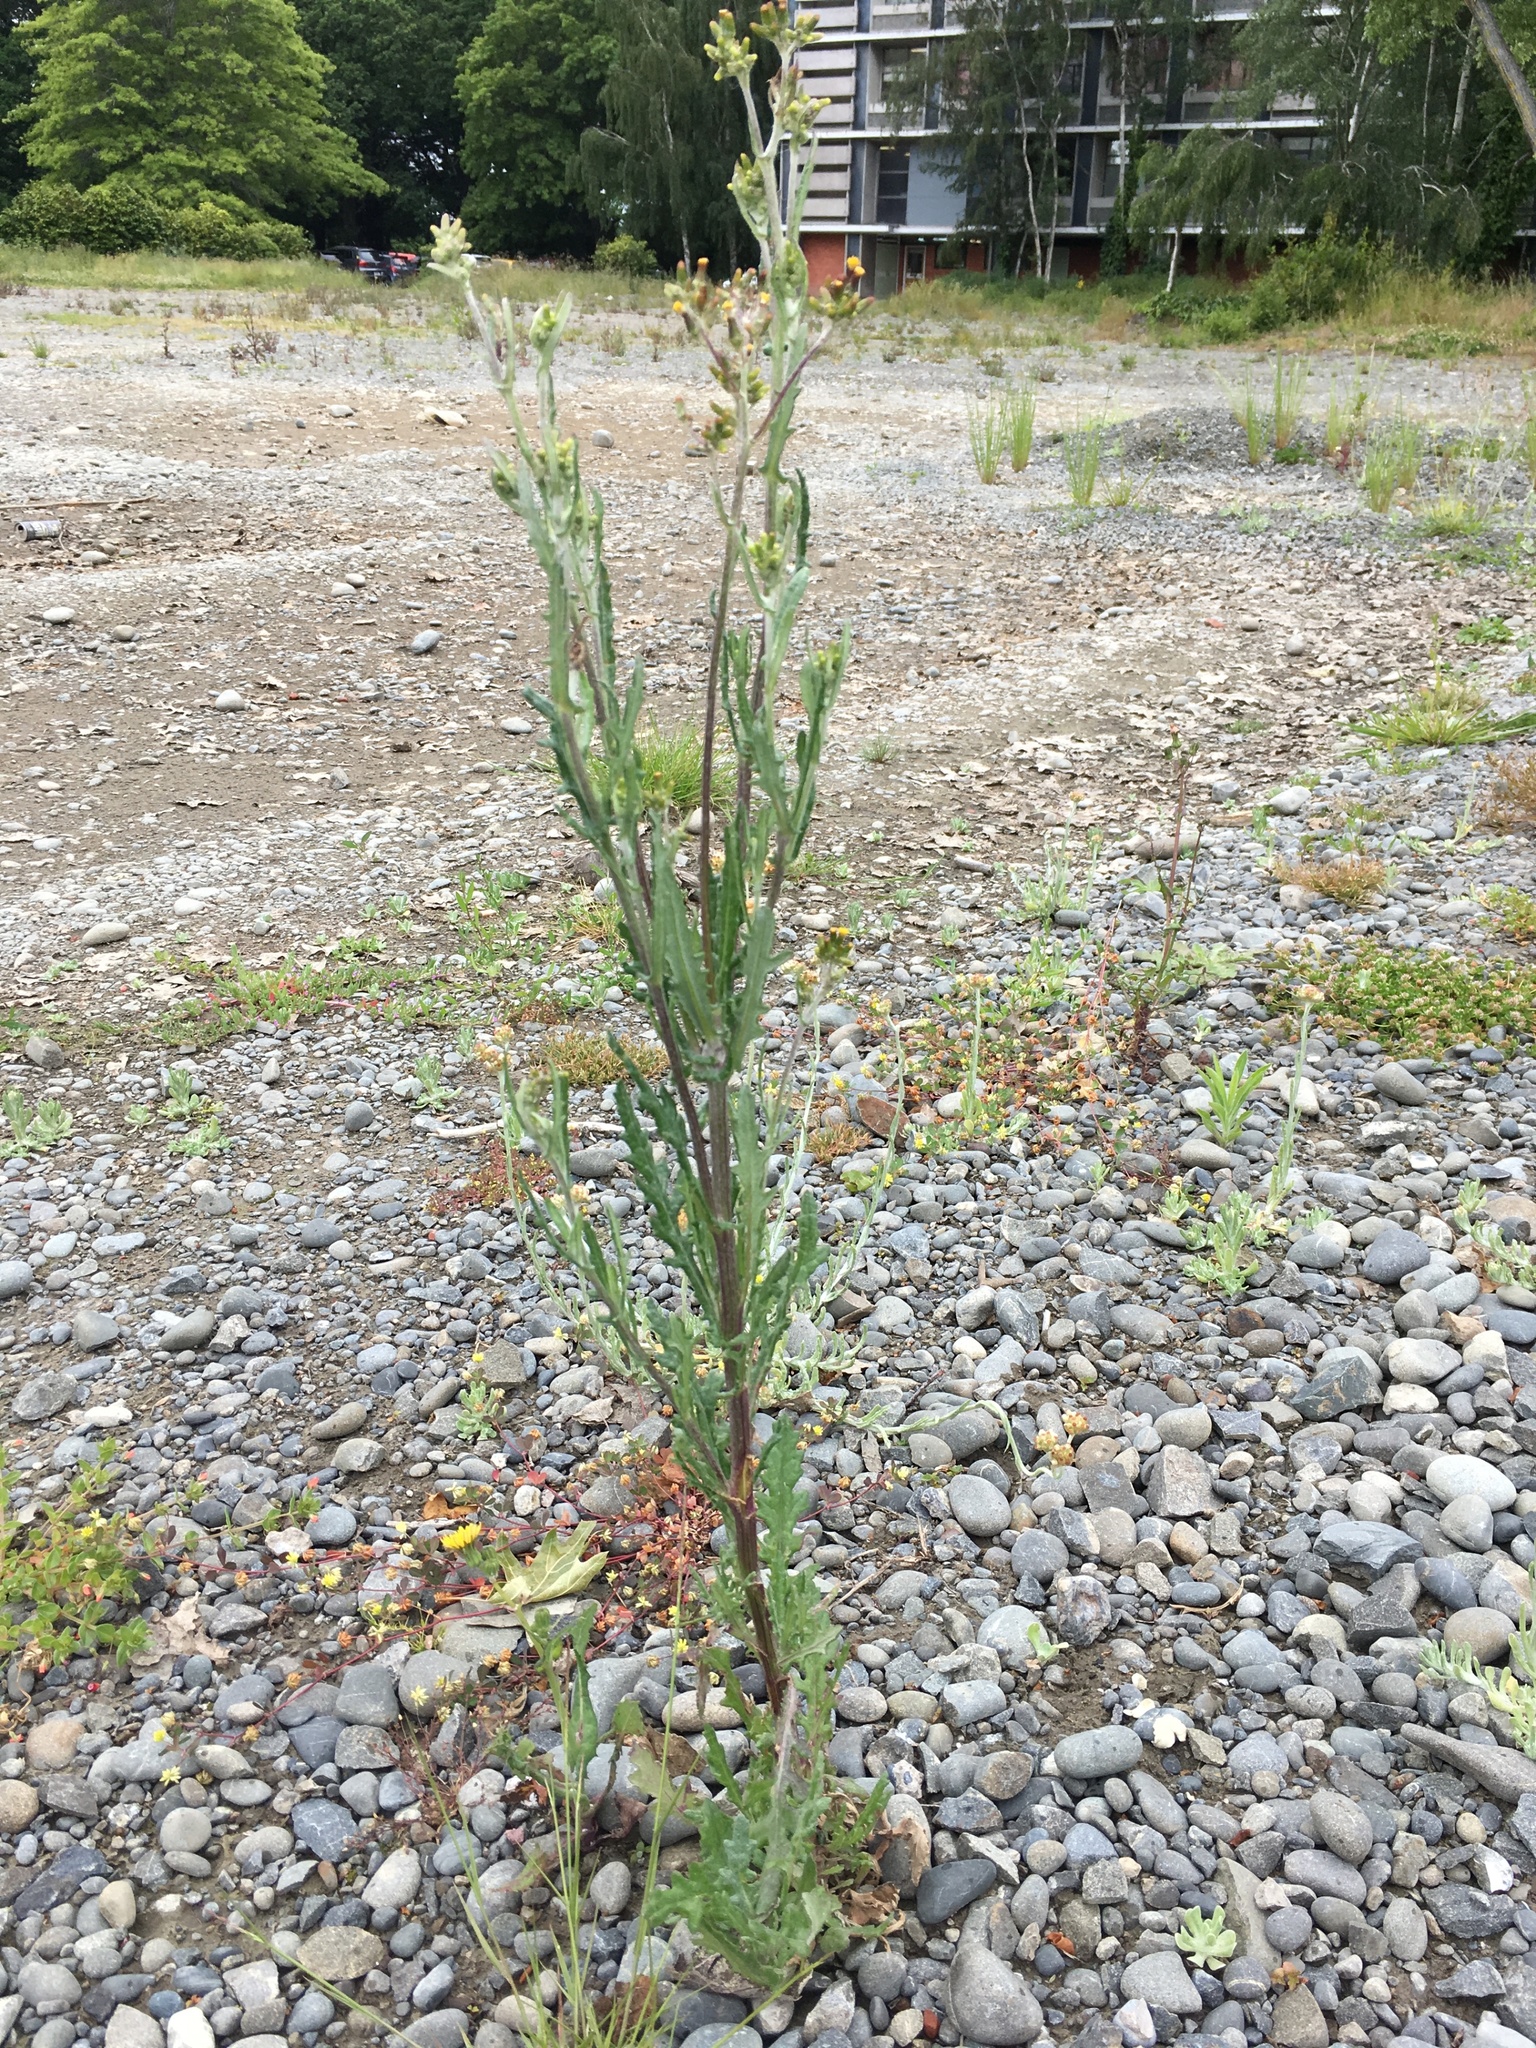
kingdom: Plantae
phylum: Tracheophyta
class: Magnoliopsida
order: Asterales
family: Asteraceae
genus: Senecio
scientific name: Senecio glomeratus
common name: Cutleaf burnweed
